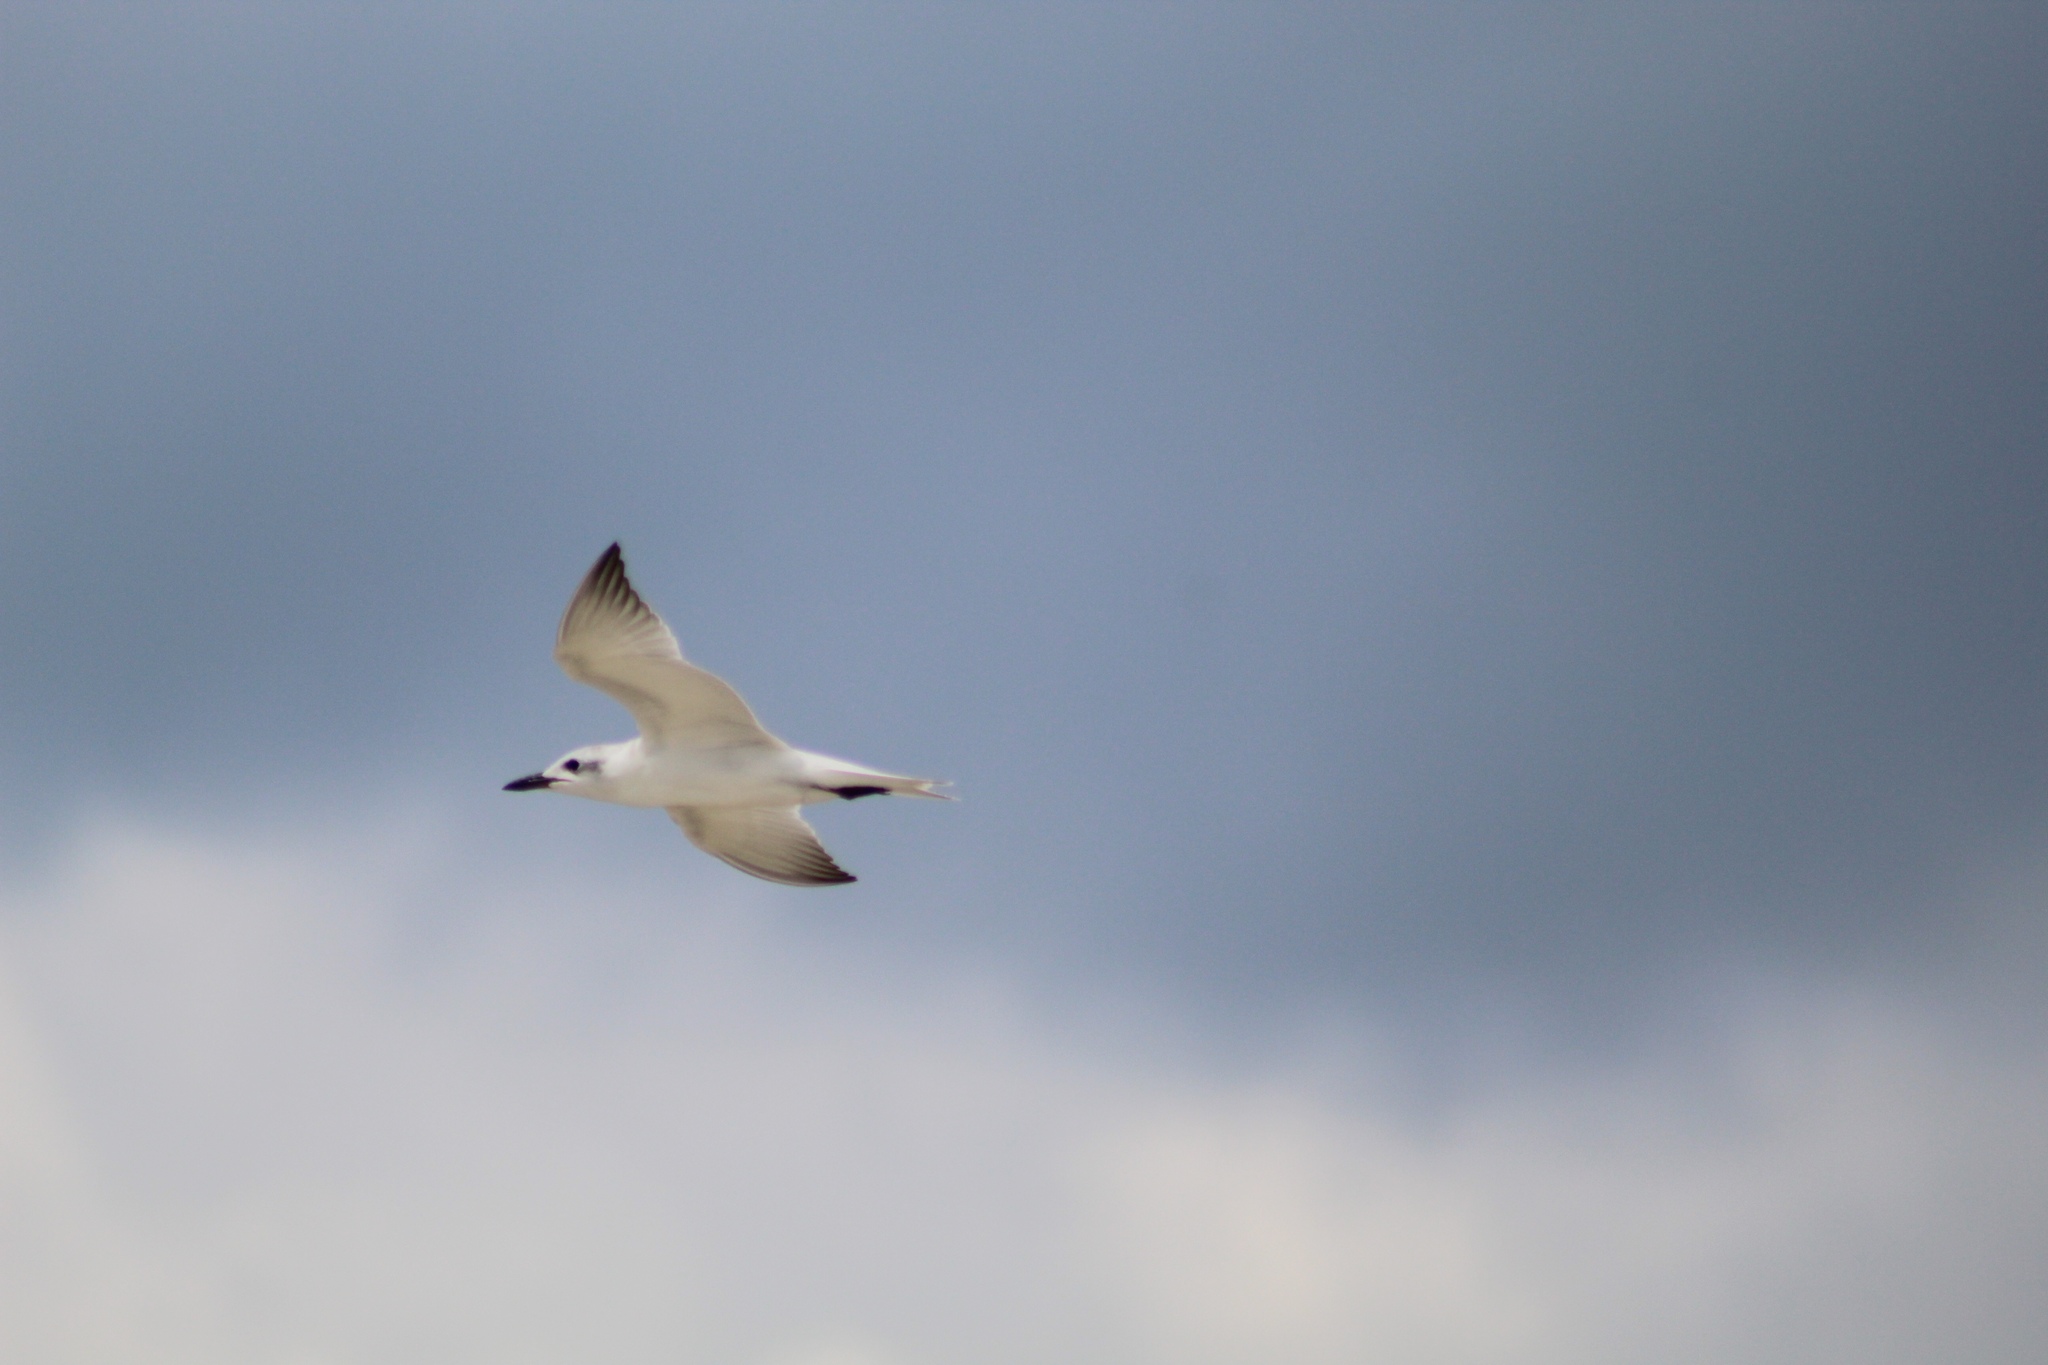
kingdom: Animalia
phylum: Chordata
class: Aves
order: Charadriiformes
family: Laridae
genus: Gelochelidon
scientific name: Gelochelidon nilotica
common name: Gull-billed tern
